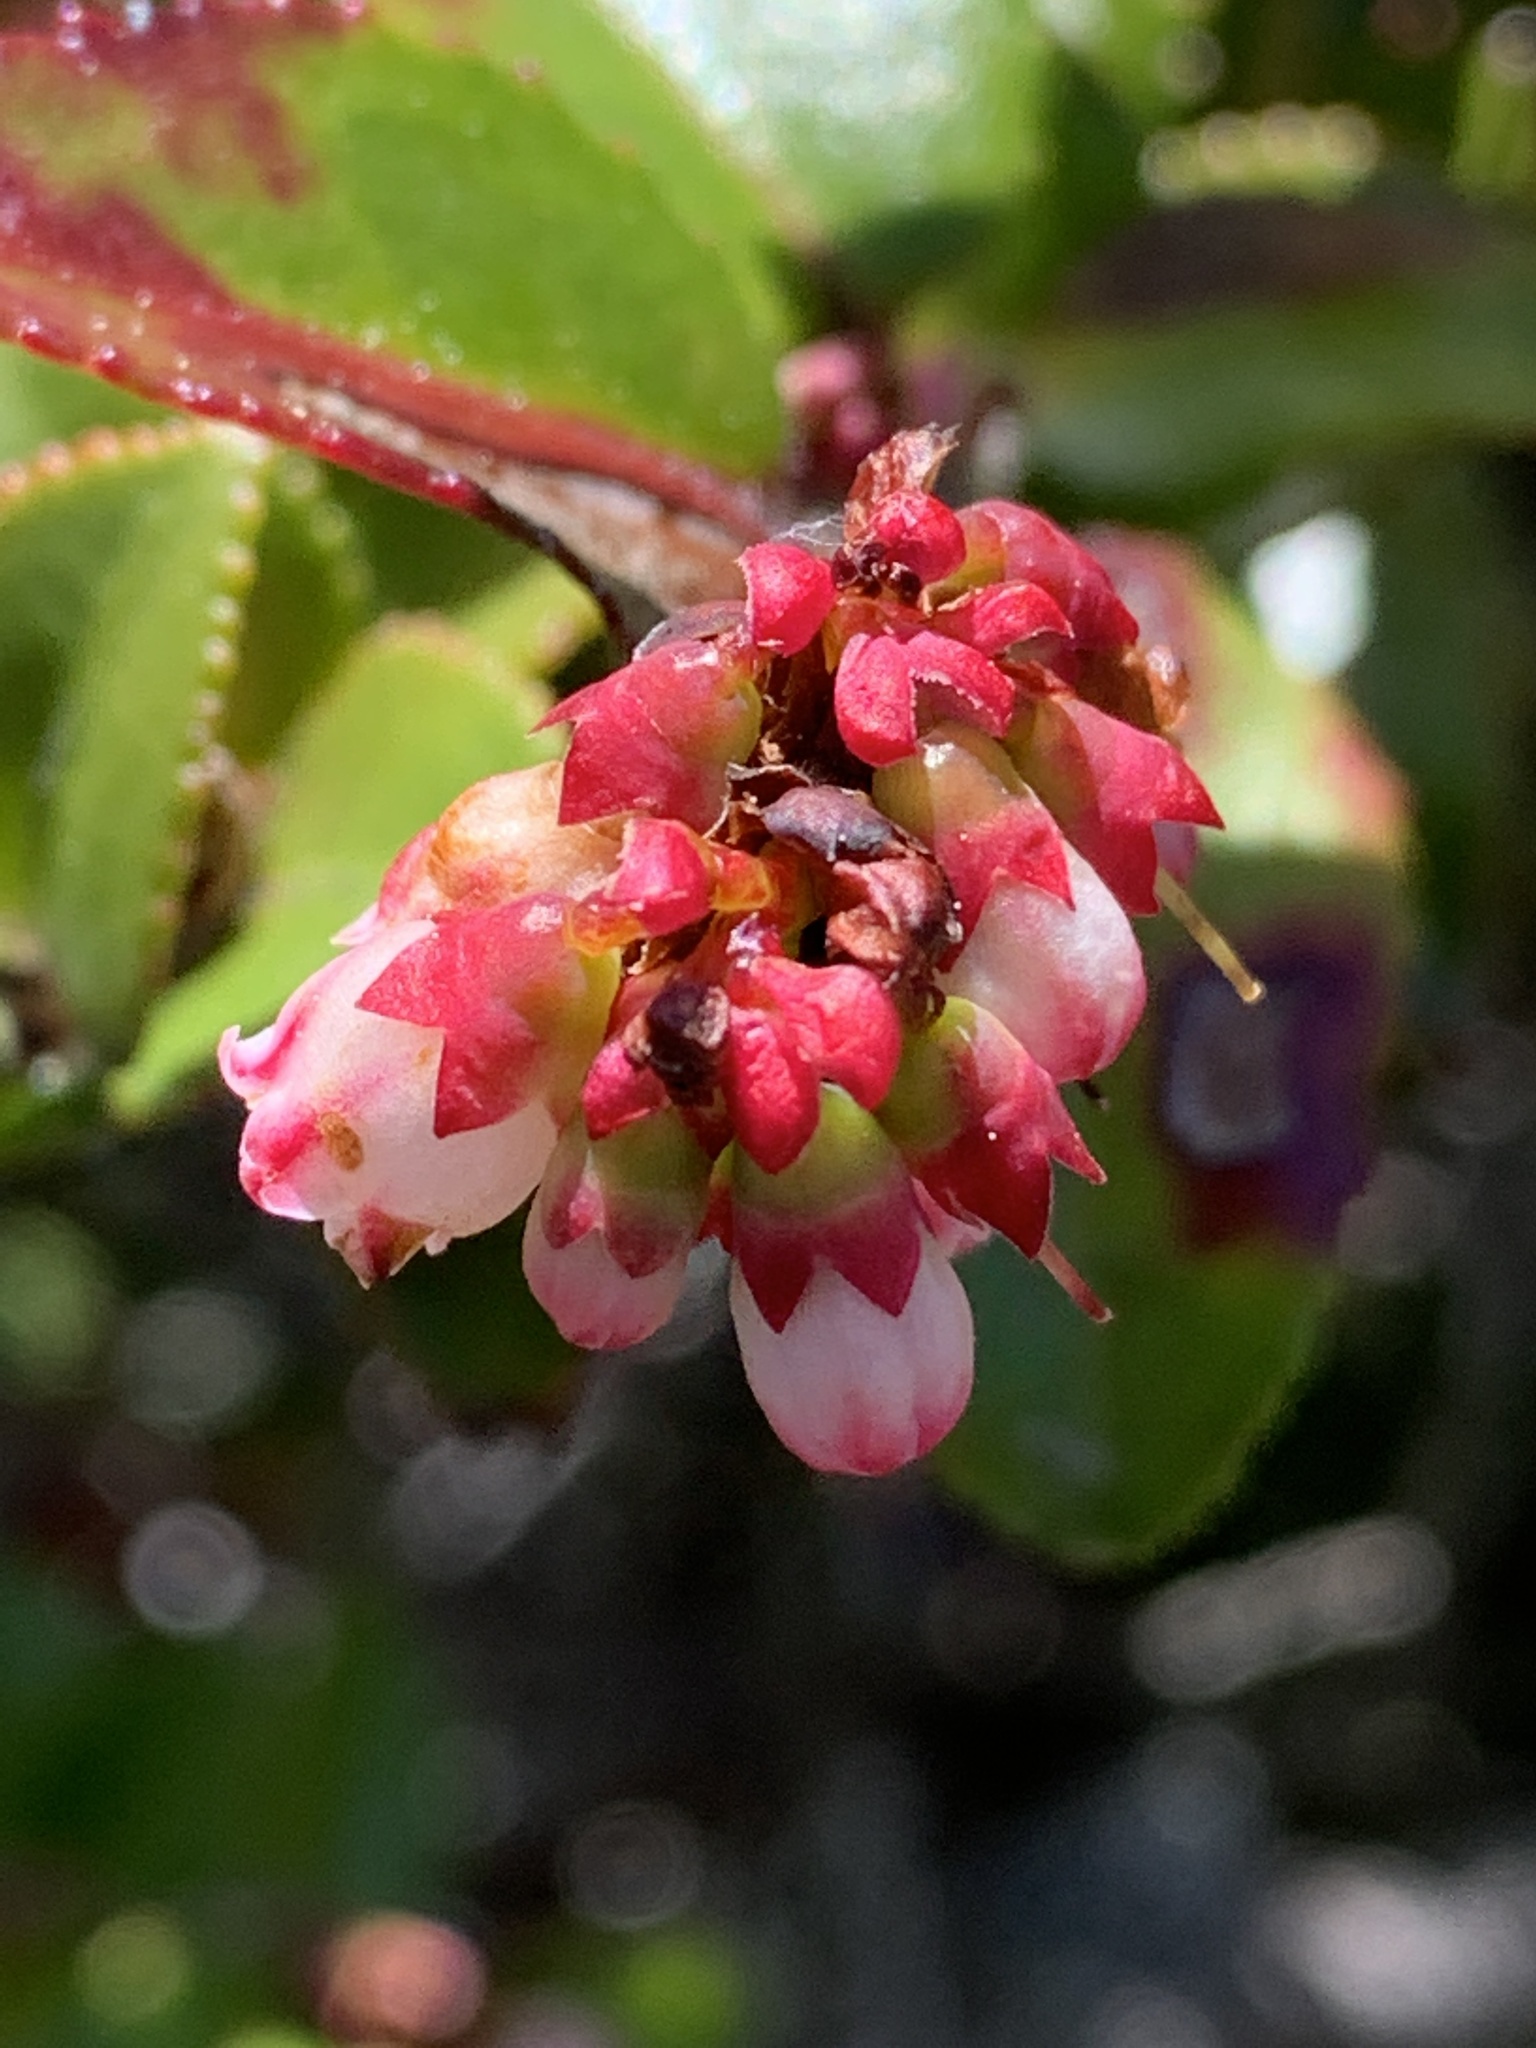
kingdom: Plantae
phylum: Tracheophyta
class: Magnoliopsida
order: Ericales
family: Ericaceae
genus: Vaccinium
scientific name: Vaccinium ovatum
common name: California-huckleberry
